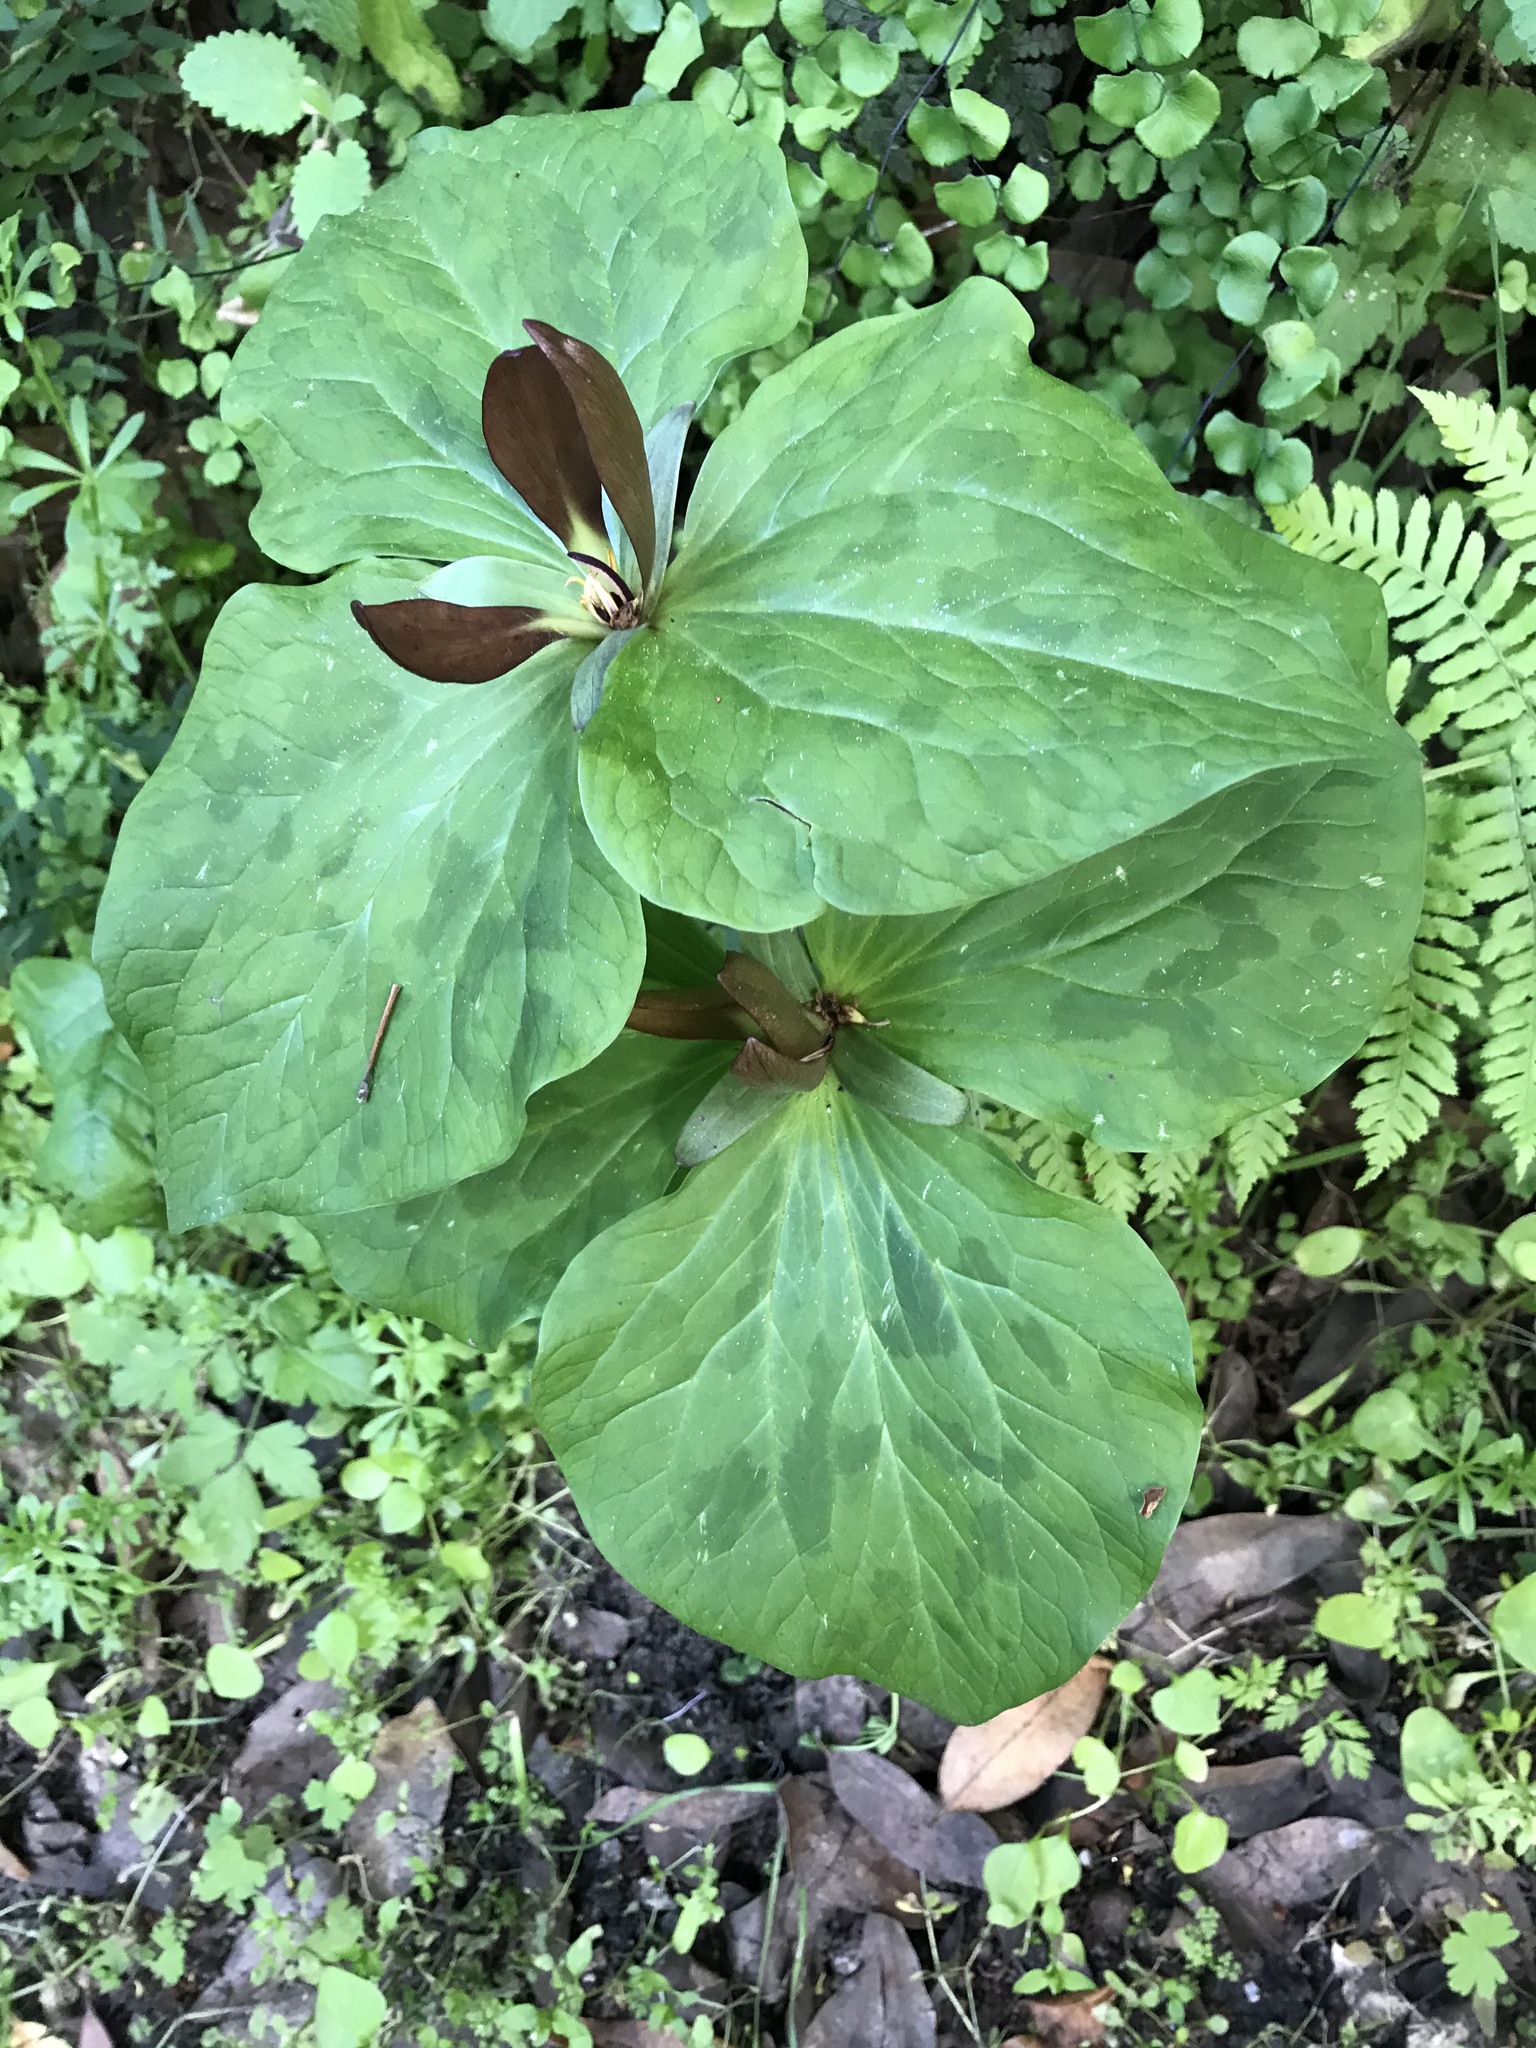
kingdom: Plantae
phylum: Tracheophyta
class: Liliopsida
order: Liliales
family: Melanthiaceae
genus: Trillium
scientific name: Trillium chloropetalum
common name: Giant trillium
